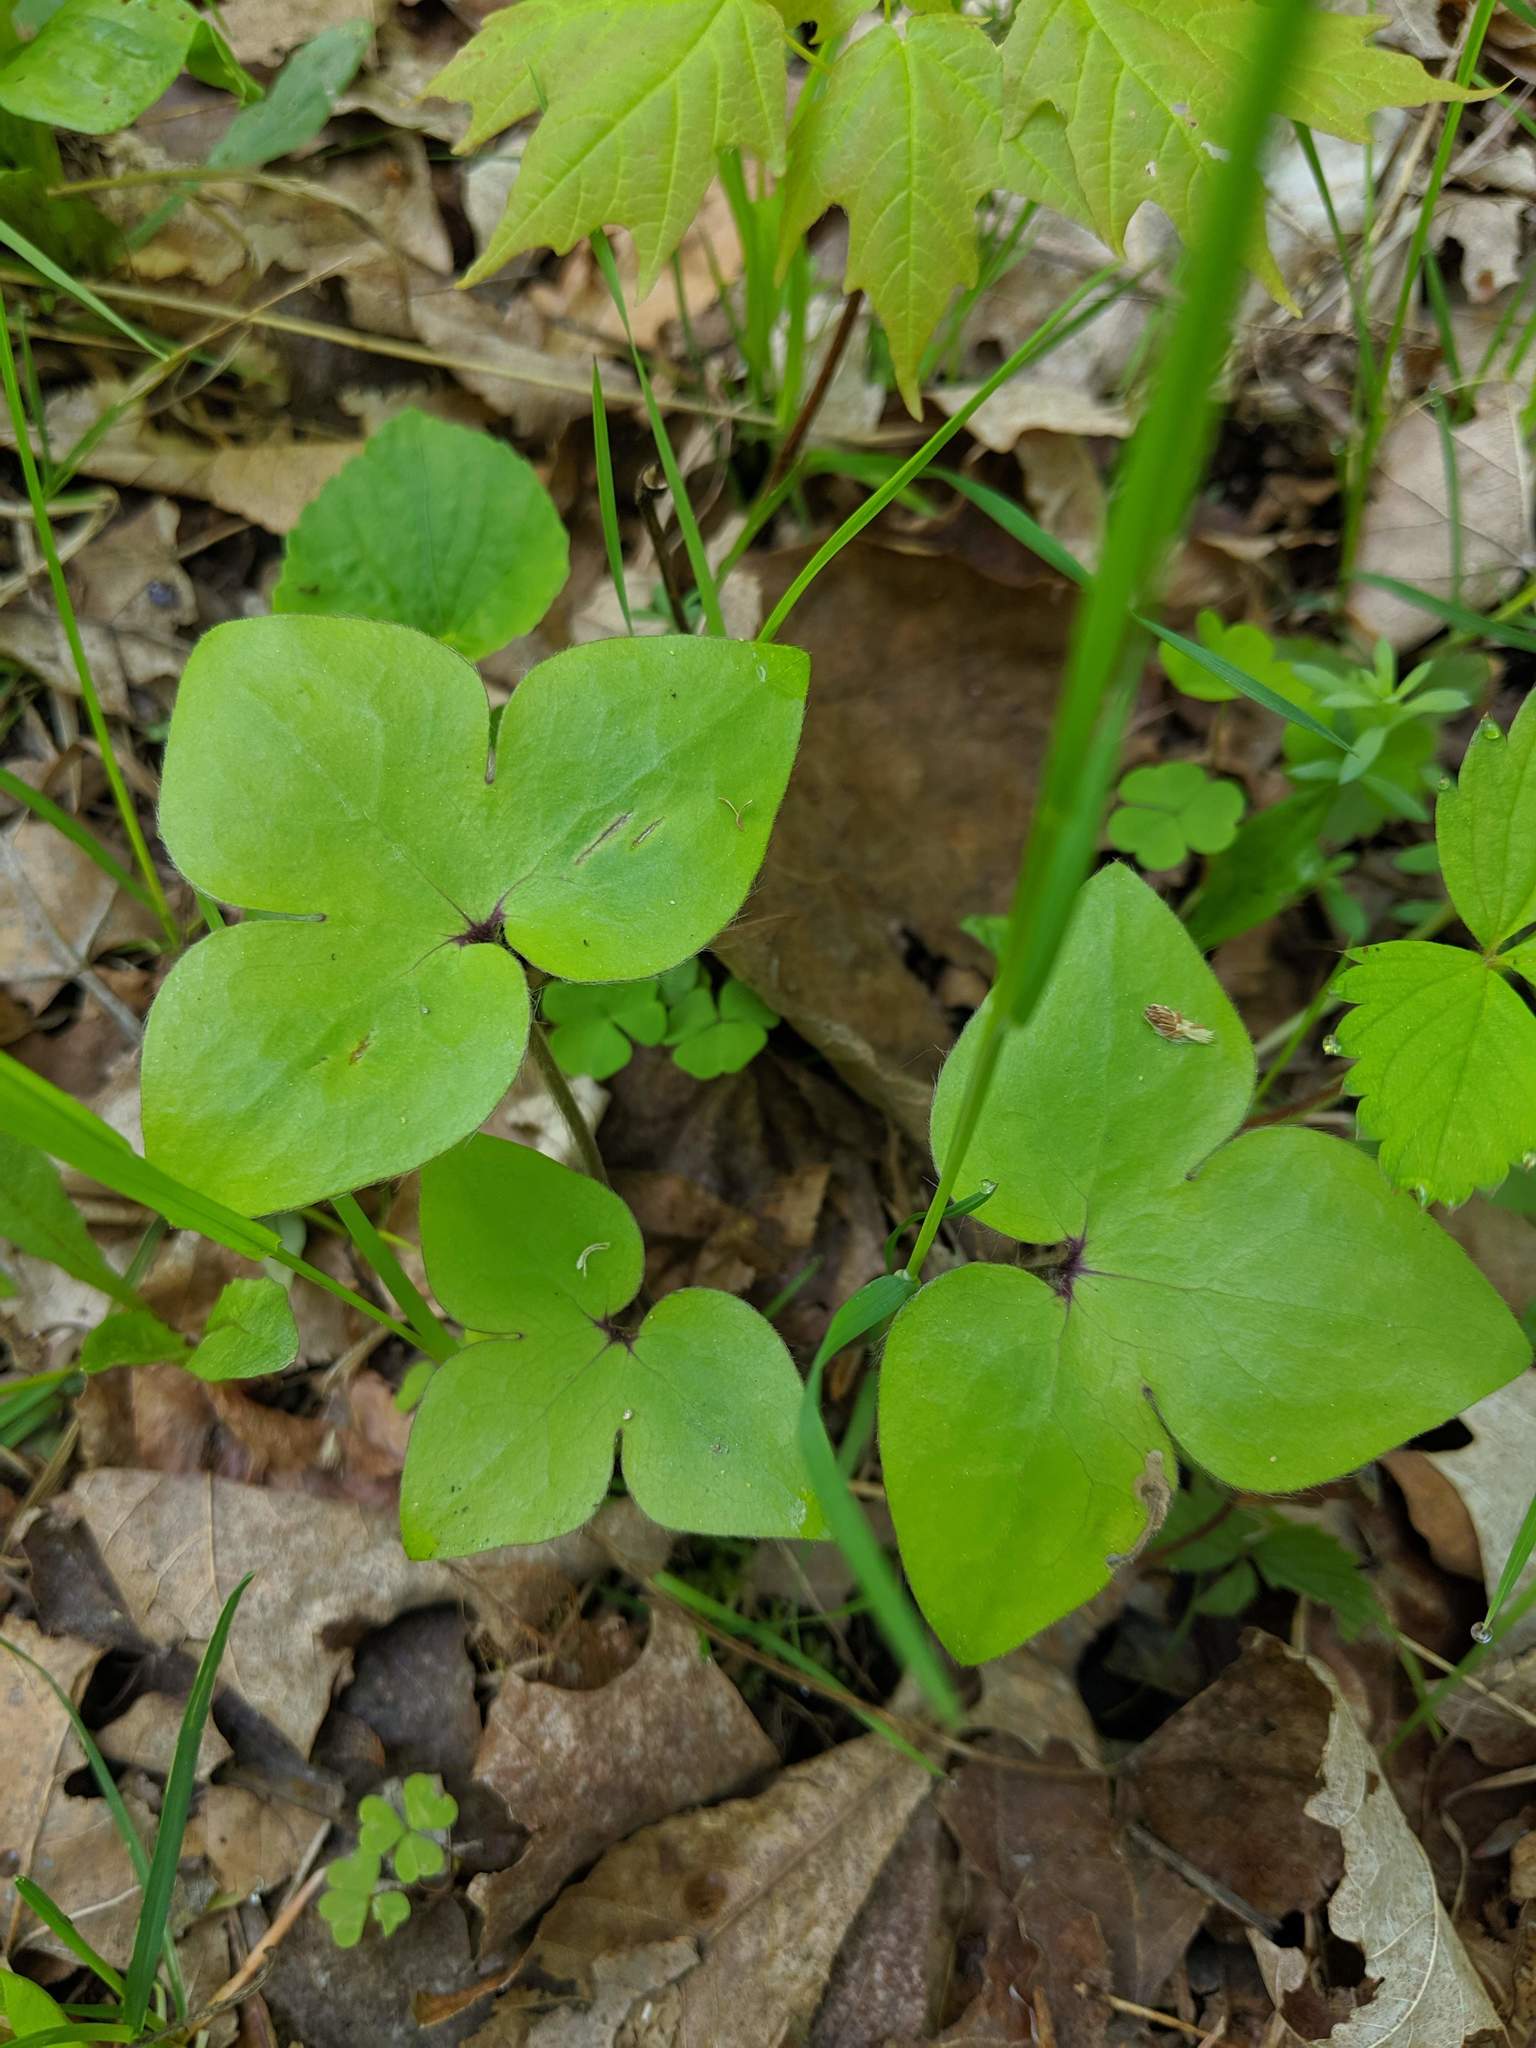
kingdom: Plantae
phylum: Tracheophyta
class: Magnoliopsida
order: Ranunculales
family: Ranunculaceae
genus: Hepatica
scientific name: Hepatica acutiloba
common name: Sharp-lobed hepatica
